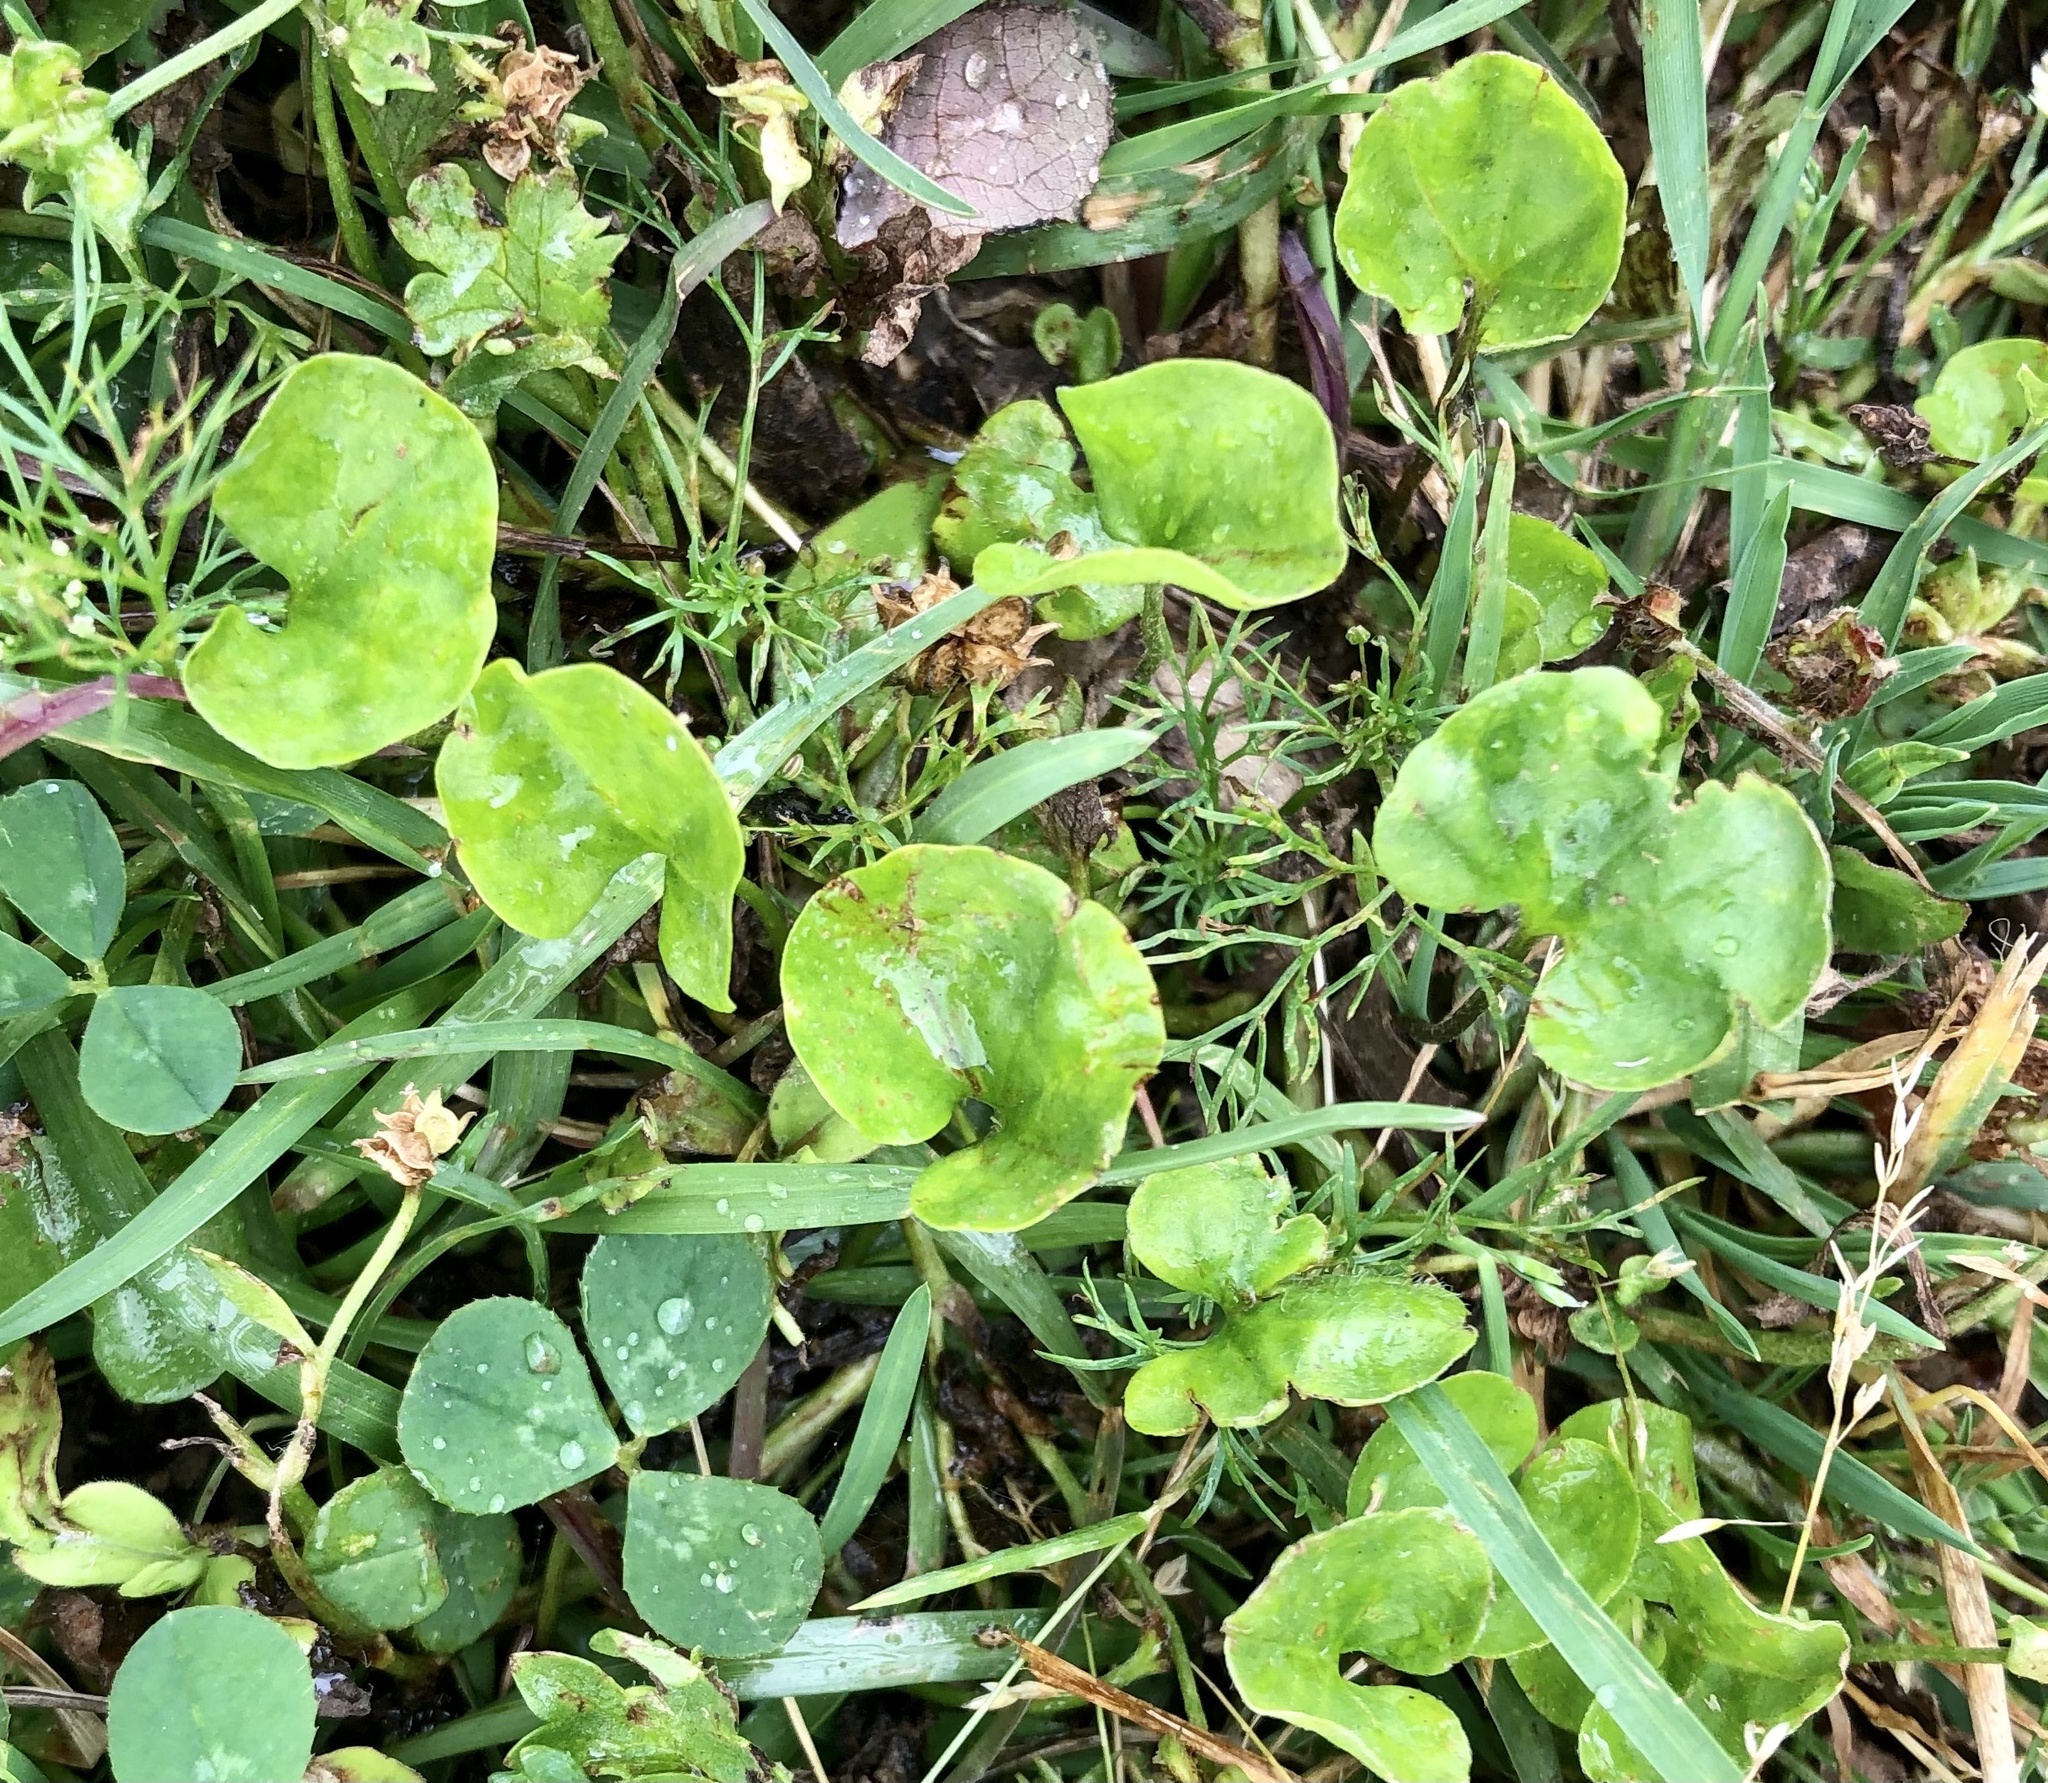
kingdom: Plantae
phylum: Tracheophyta
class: Magnoliopsida
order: Solanales
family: Convolvulaceae
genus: Dichondra
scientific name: Dichondra carolinensis
